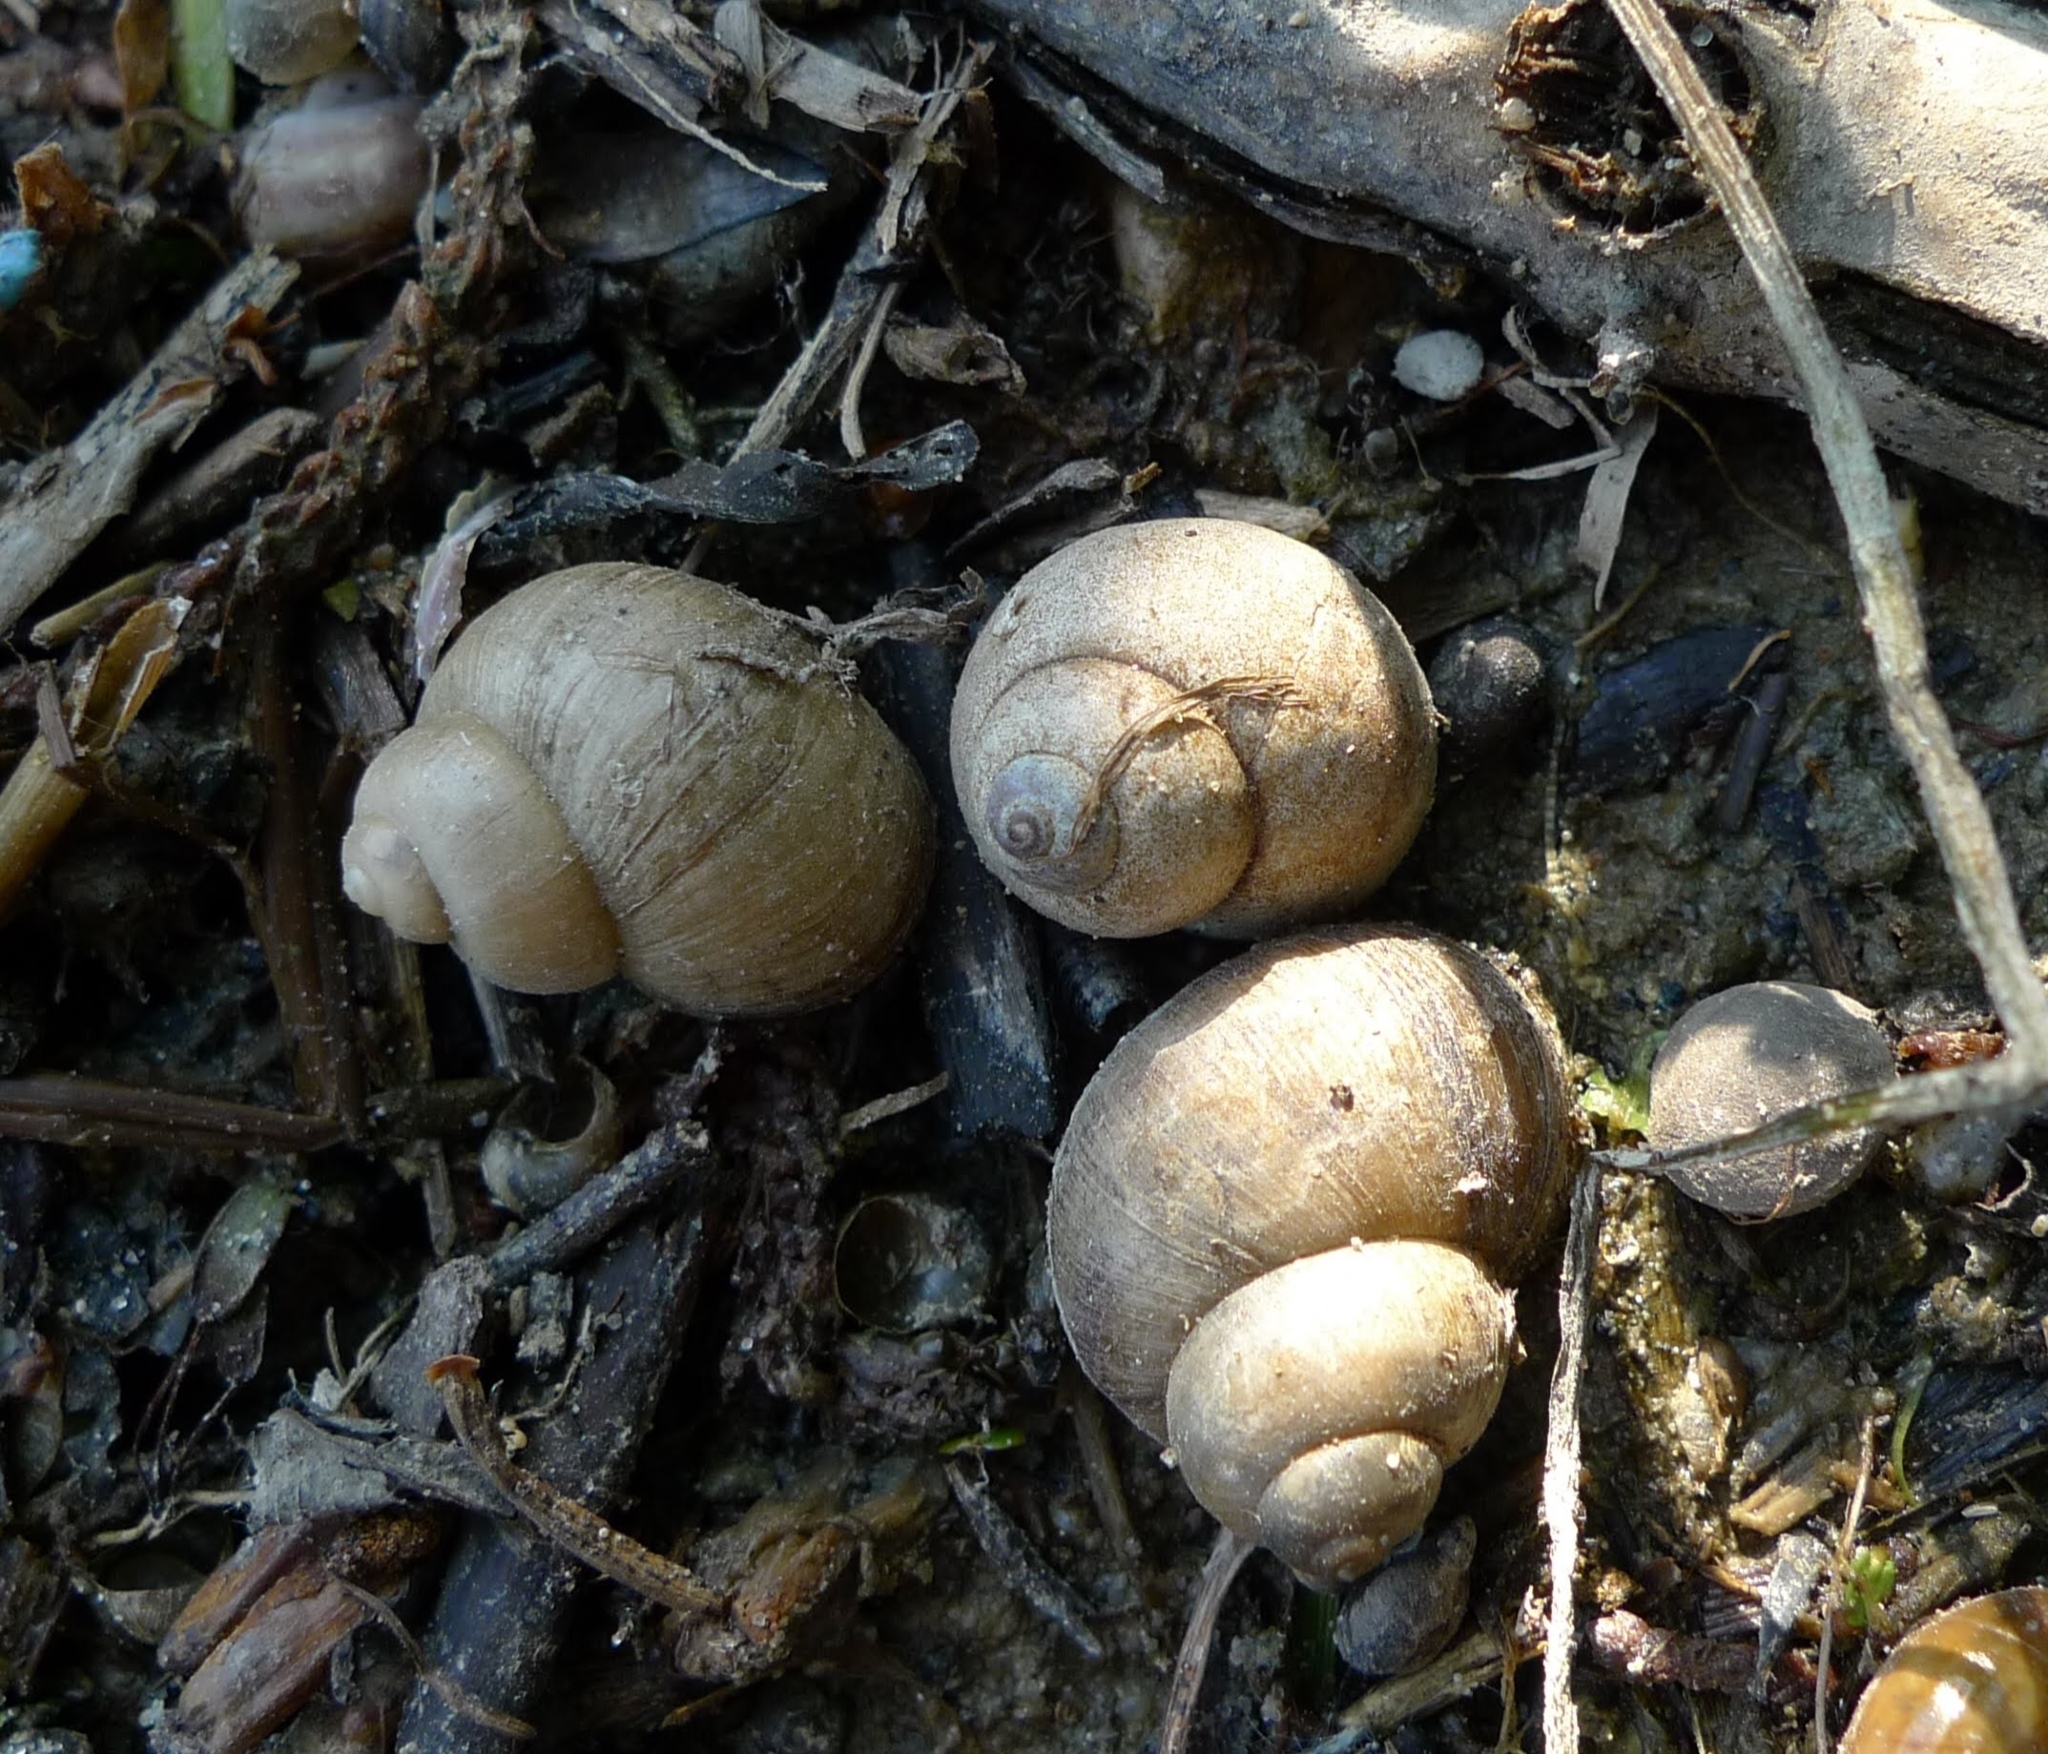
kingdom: Animalia
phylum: Mollusca
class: Gastropoda
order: Architaenioglossa
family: Viviparidae
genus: Viviparus
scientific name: Viviparus viviparus
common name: River snail
